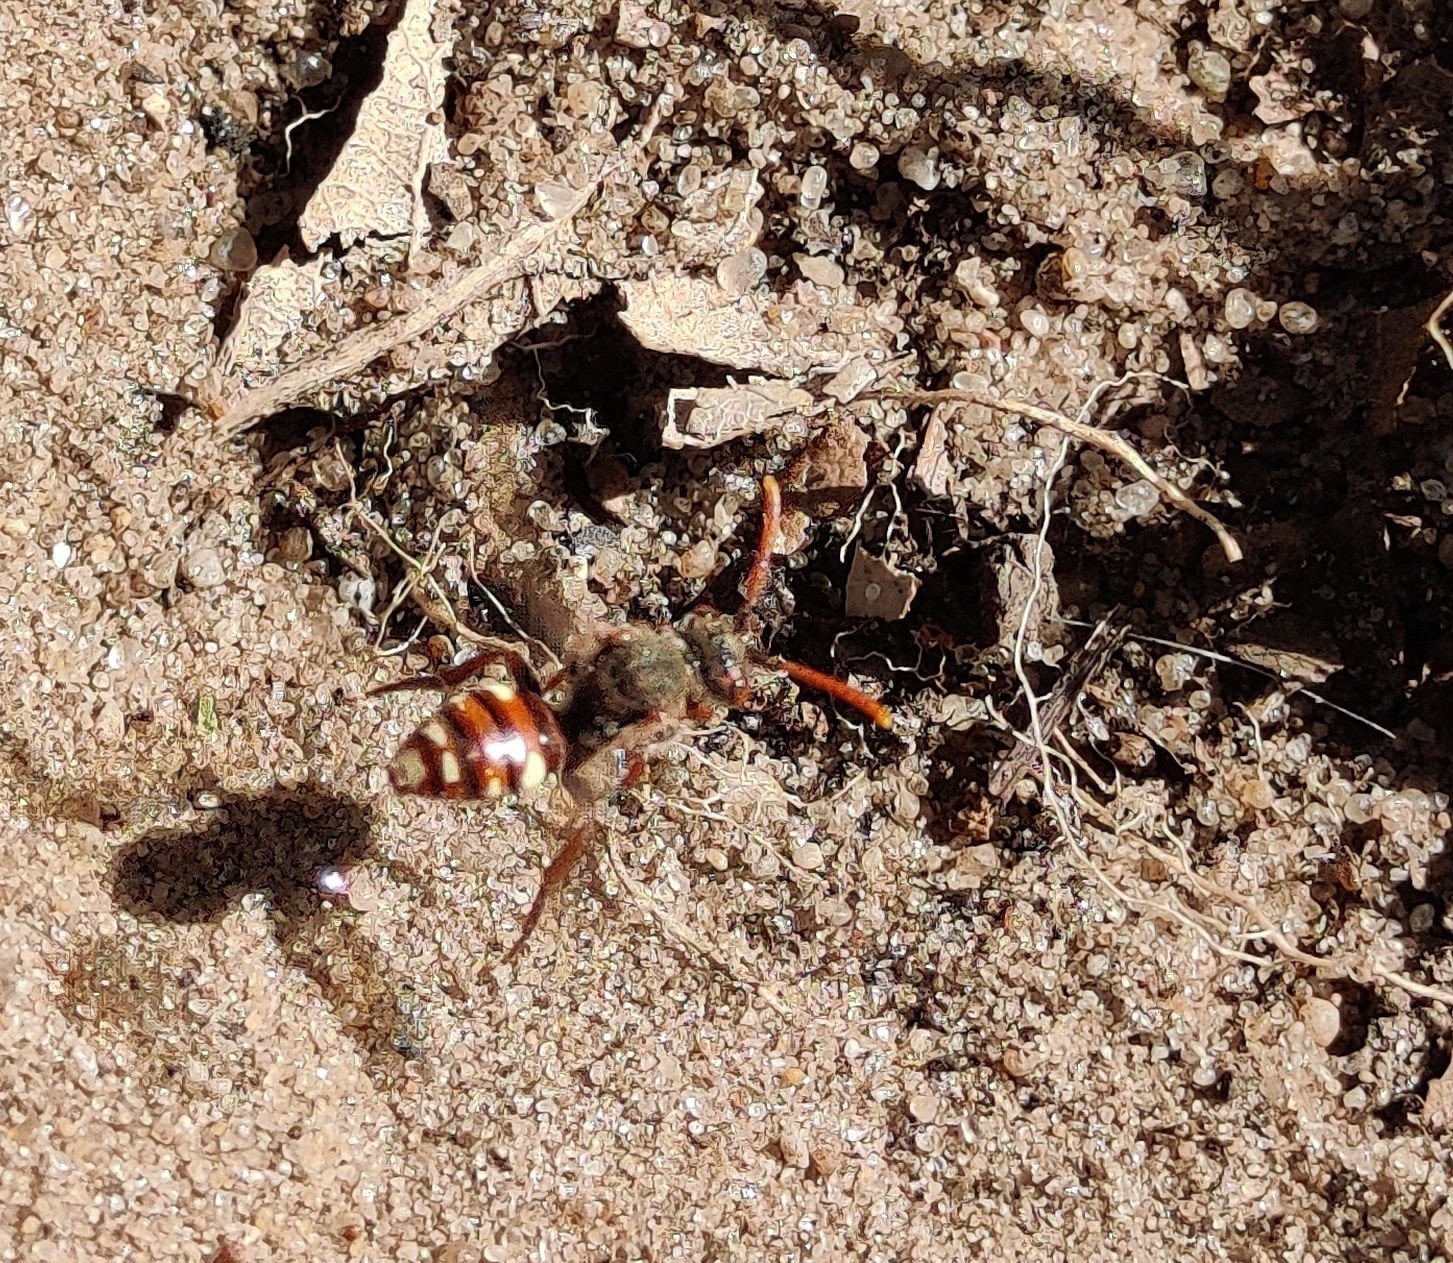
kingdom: Animalia
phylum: Arthropoda
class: Insecta
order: Hymenoptera
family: Apidae
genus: Nomada
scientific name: Nomada baccata
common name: Bear-clawed nomad bee
